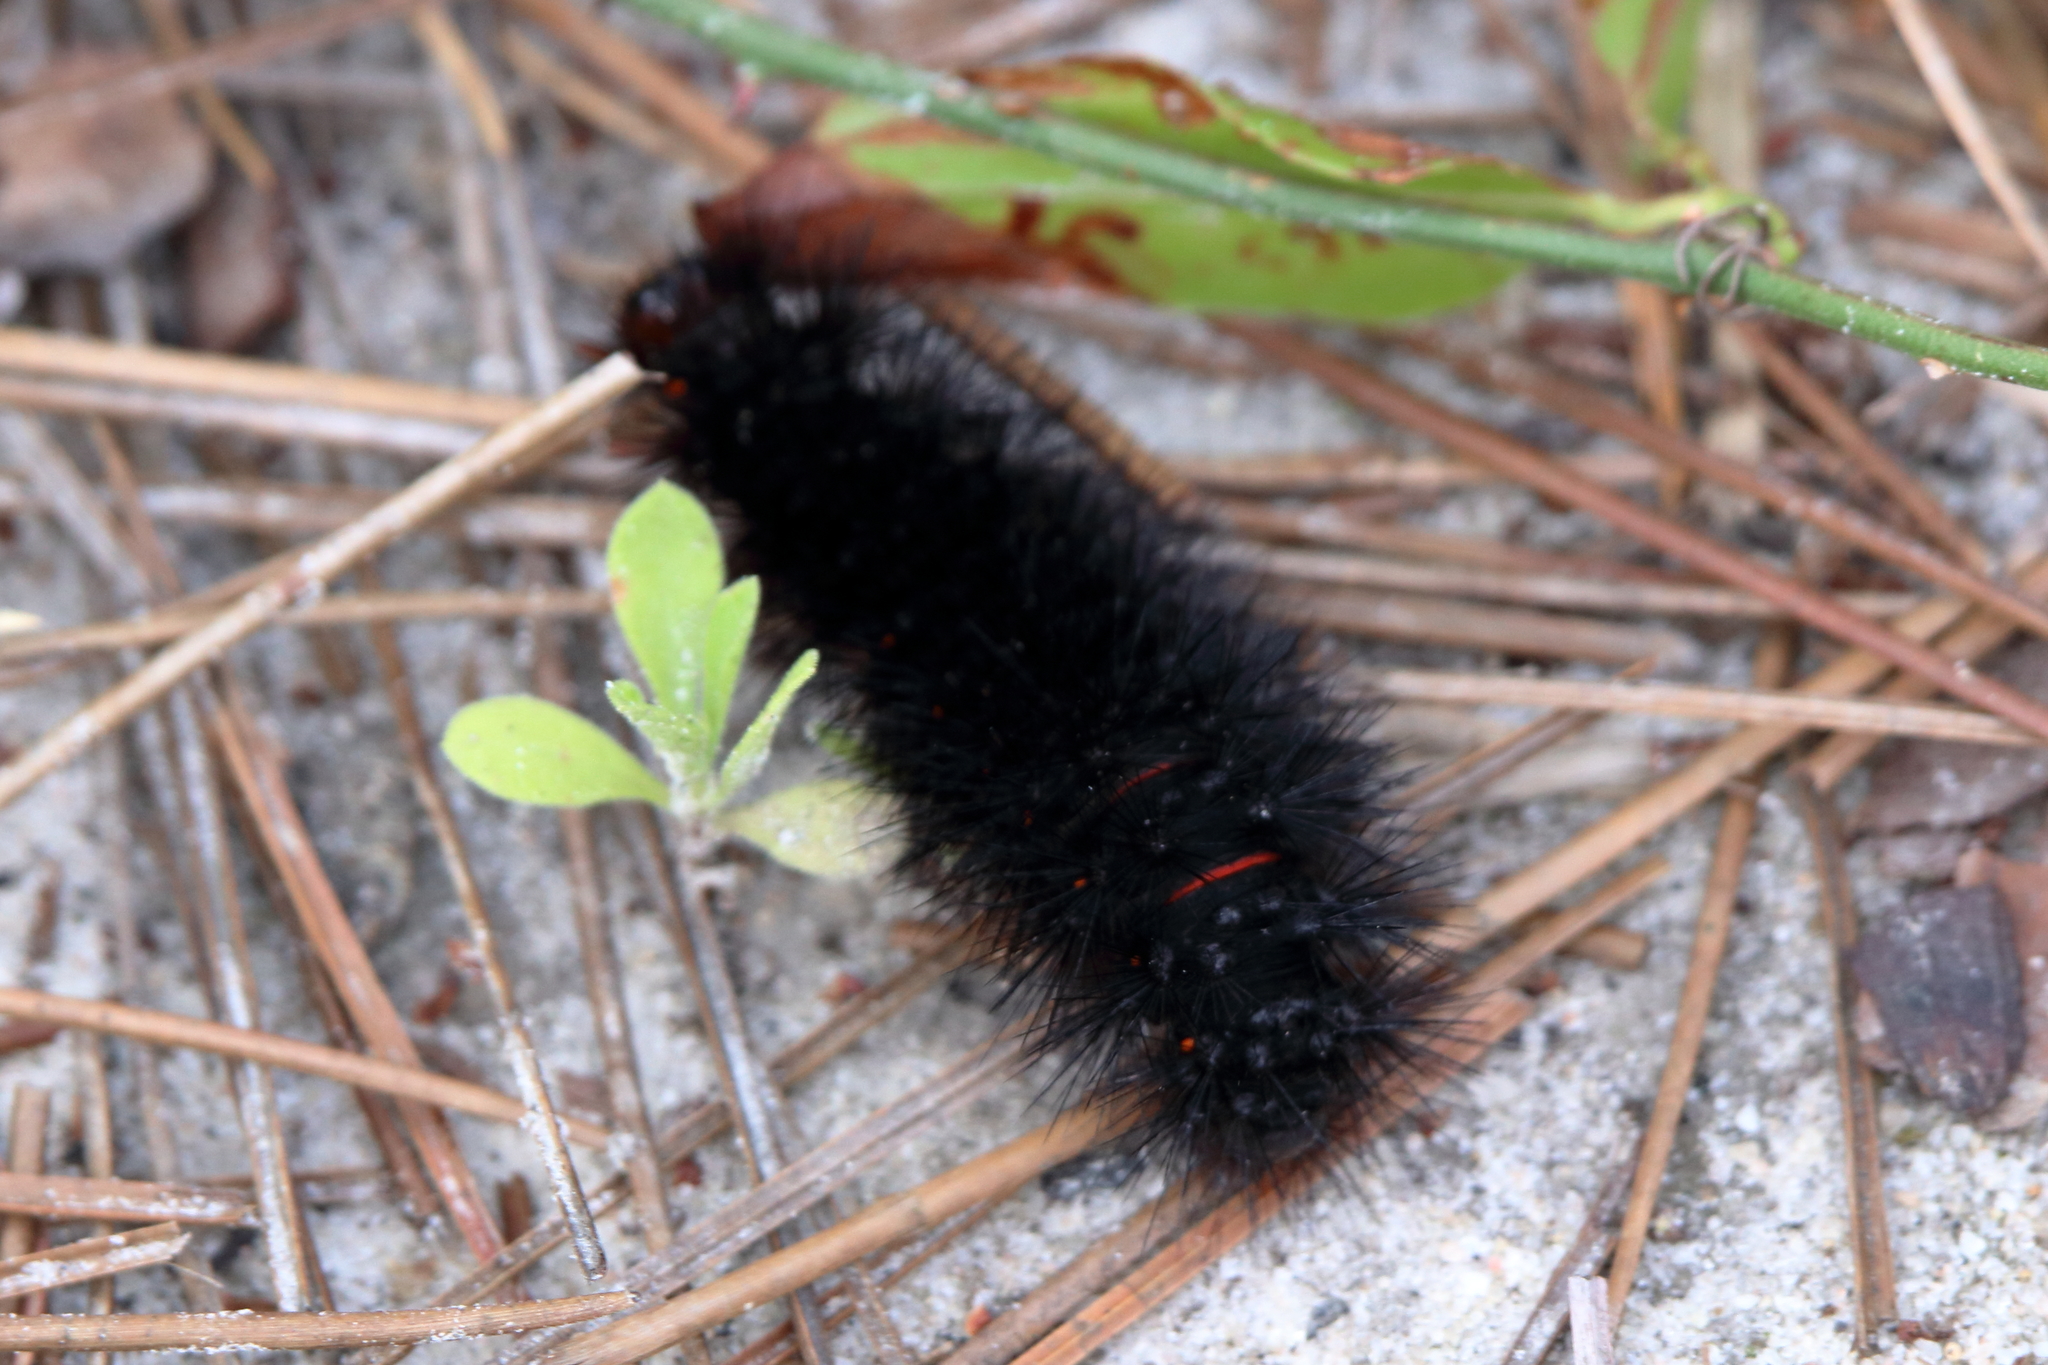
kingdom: Animalia
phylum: Arthropoda
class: Insecta
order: Lepidoptera
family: Erebidae
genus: Hypercompe
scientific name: Hypercompe scribonia
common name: Giant leopard moth
